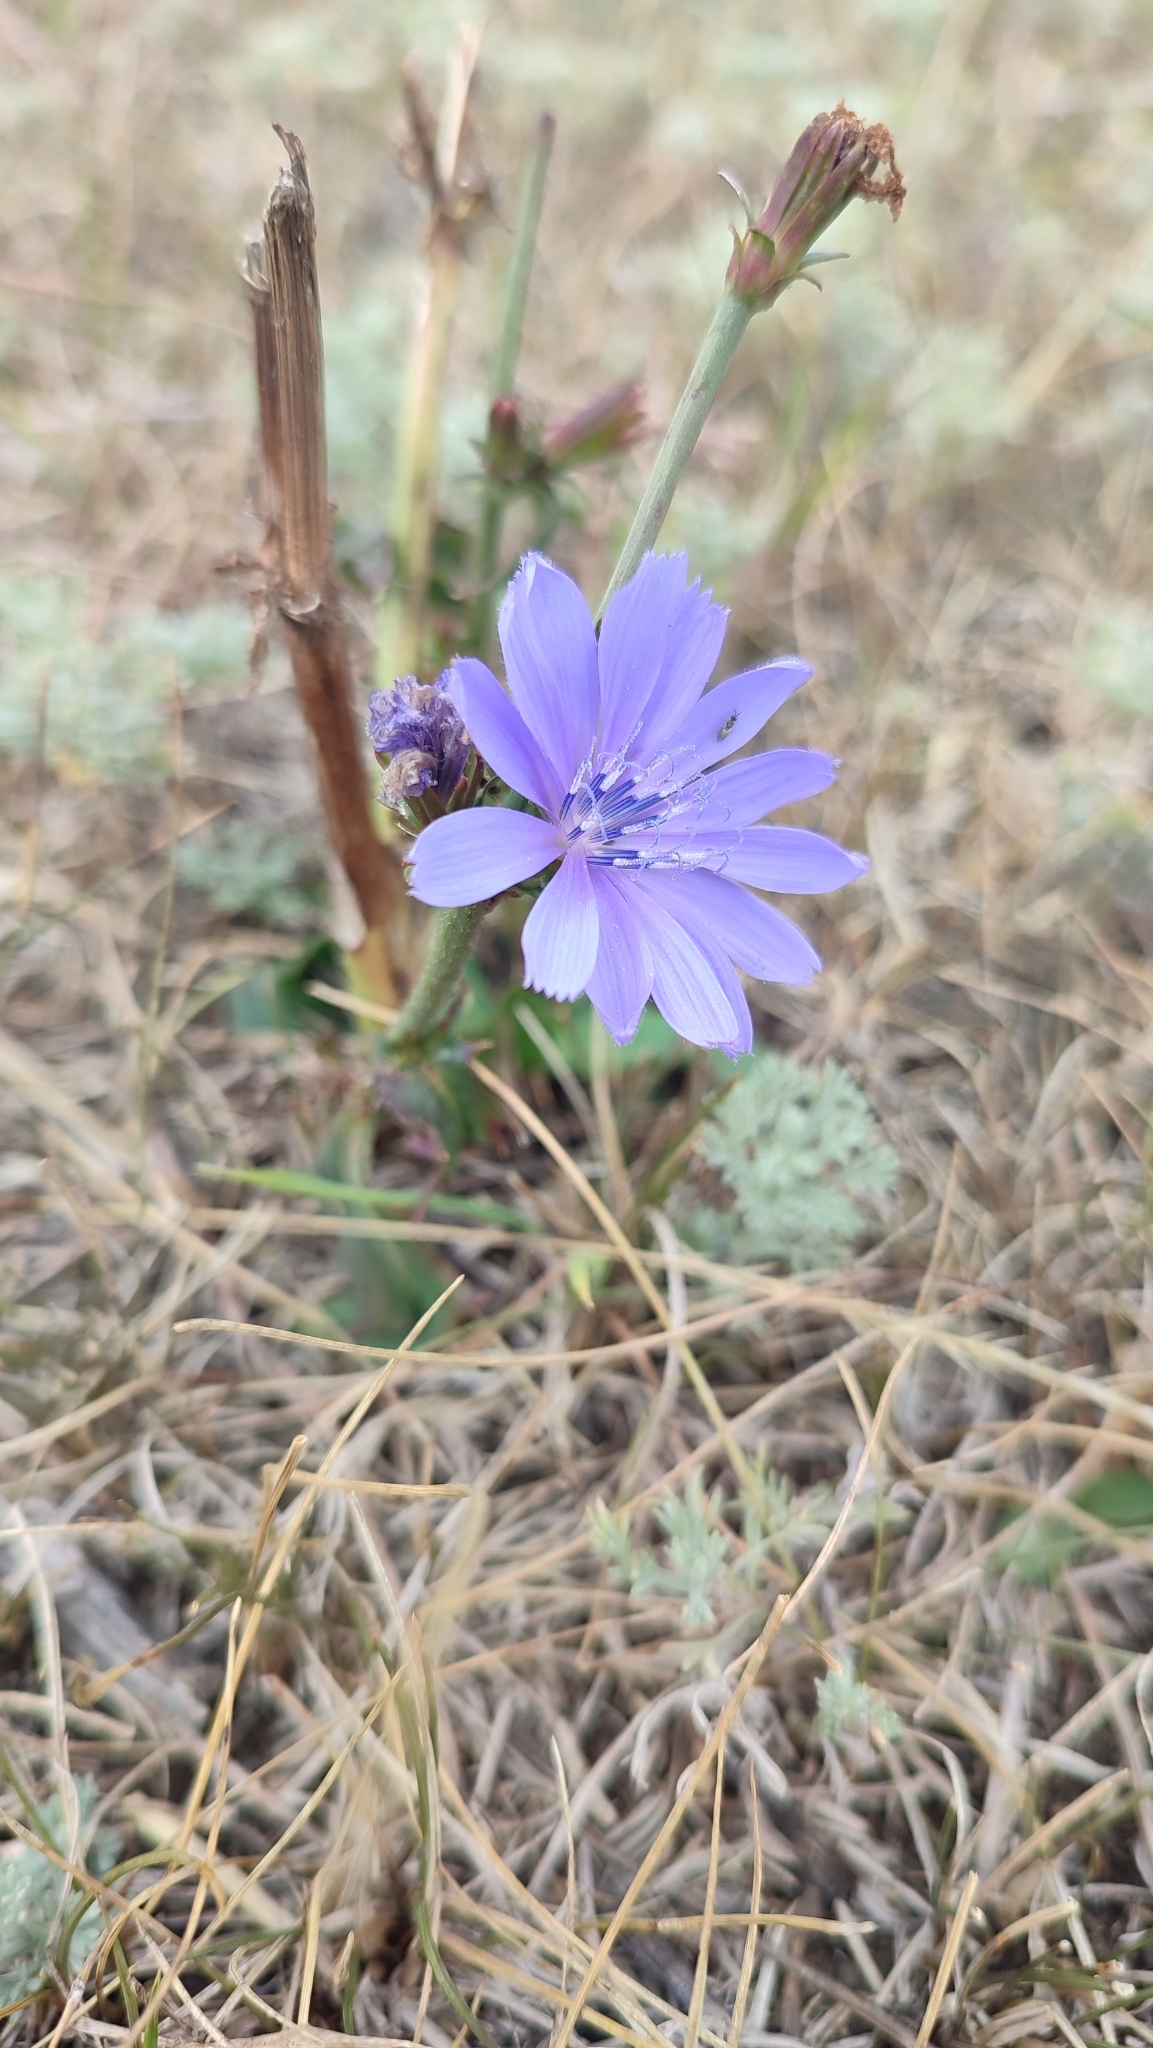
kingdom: Plantae
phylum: Tracheophyta
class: Magnoliopsida
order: Asterales
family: Asteraceae
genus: Cichorium
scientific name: Cichorium intybus
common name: Chicory
